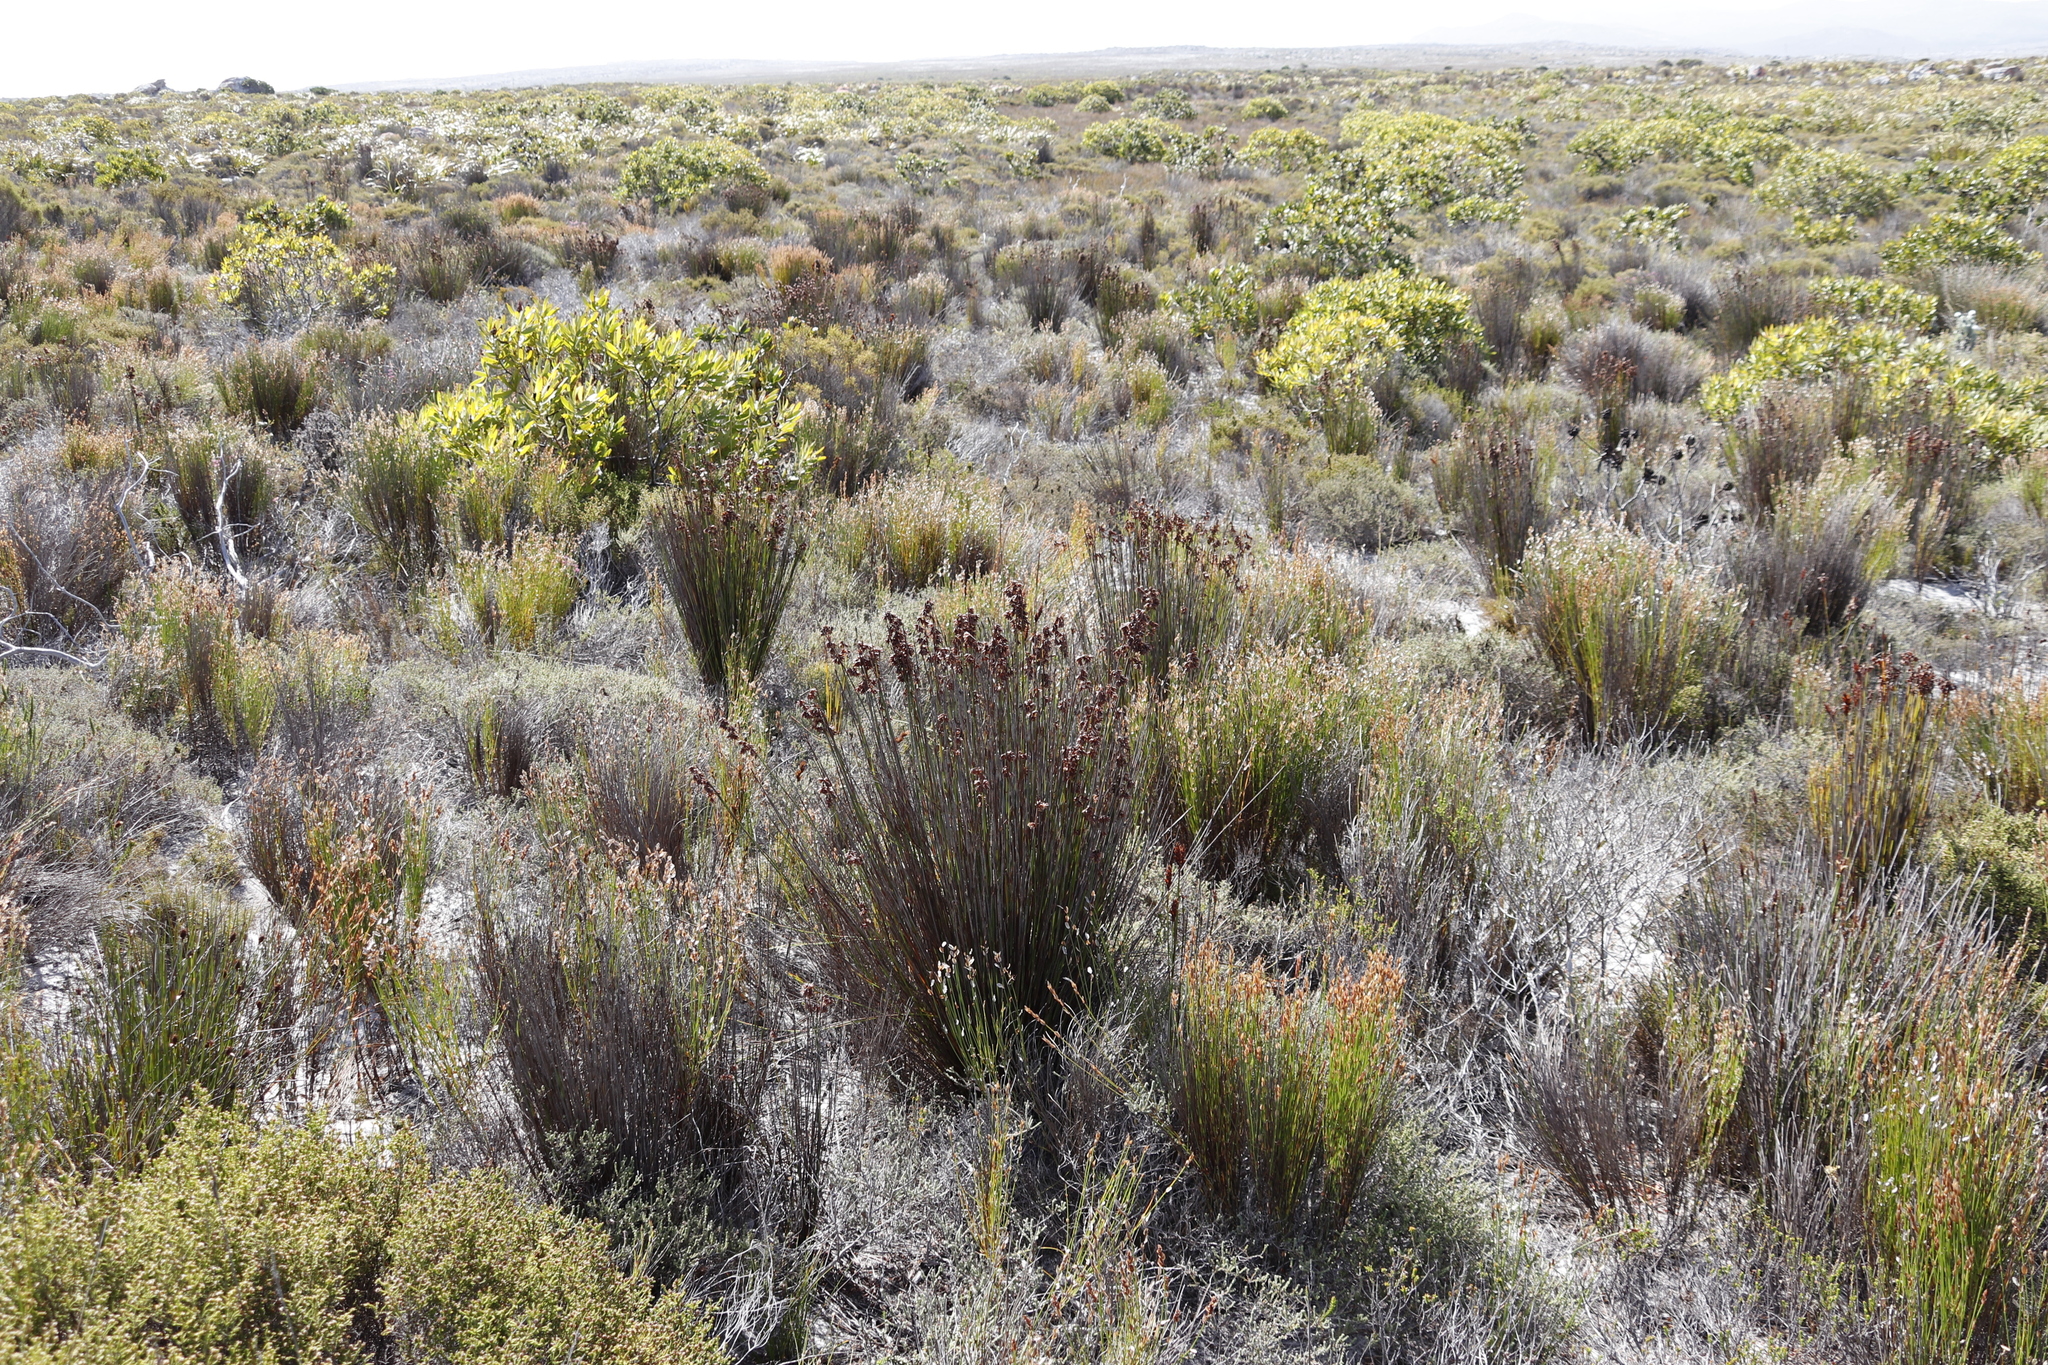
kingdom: Plantae
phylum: Tracheophyta
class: Liliopsida
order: Poales
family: Restionaceae
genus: Elegia
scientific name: Elegia stipularis
